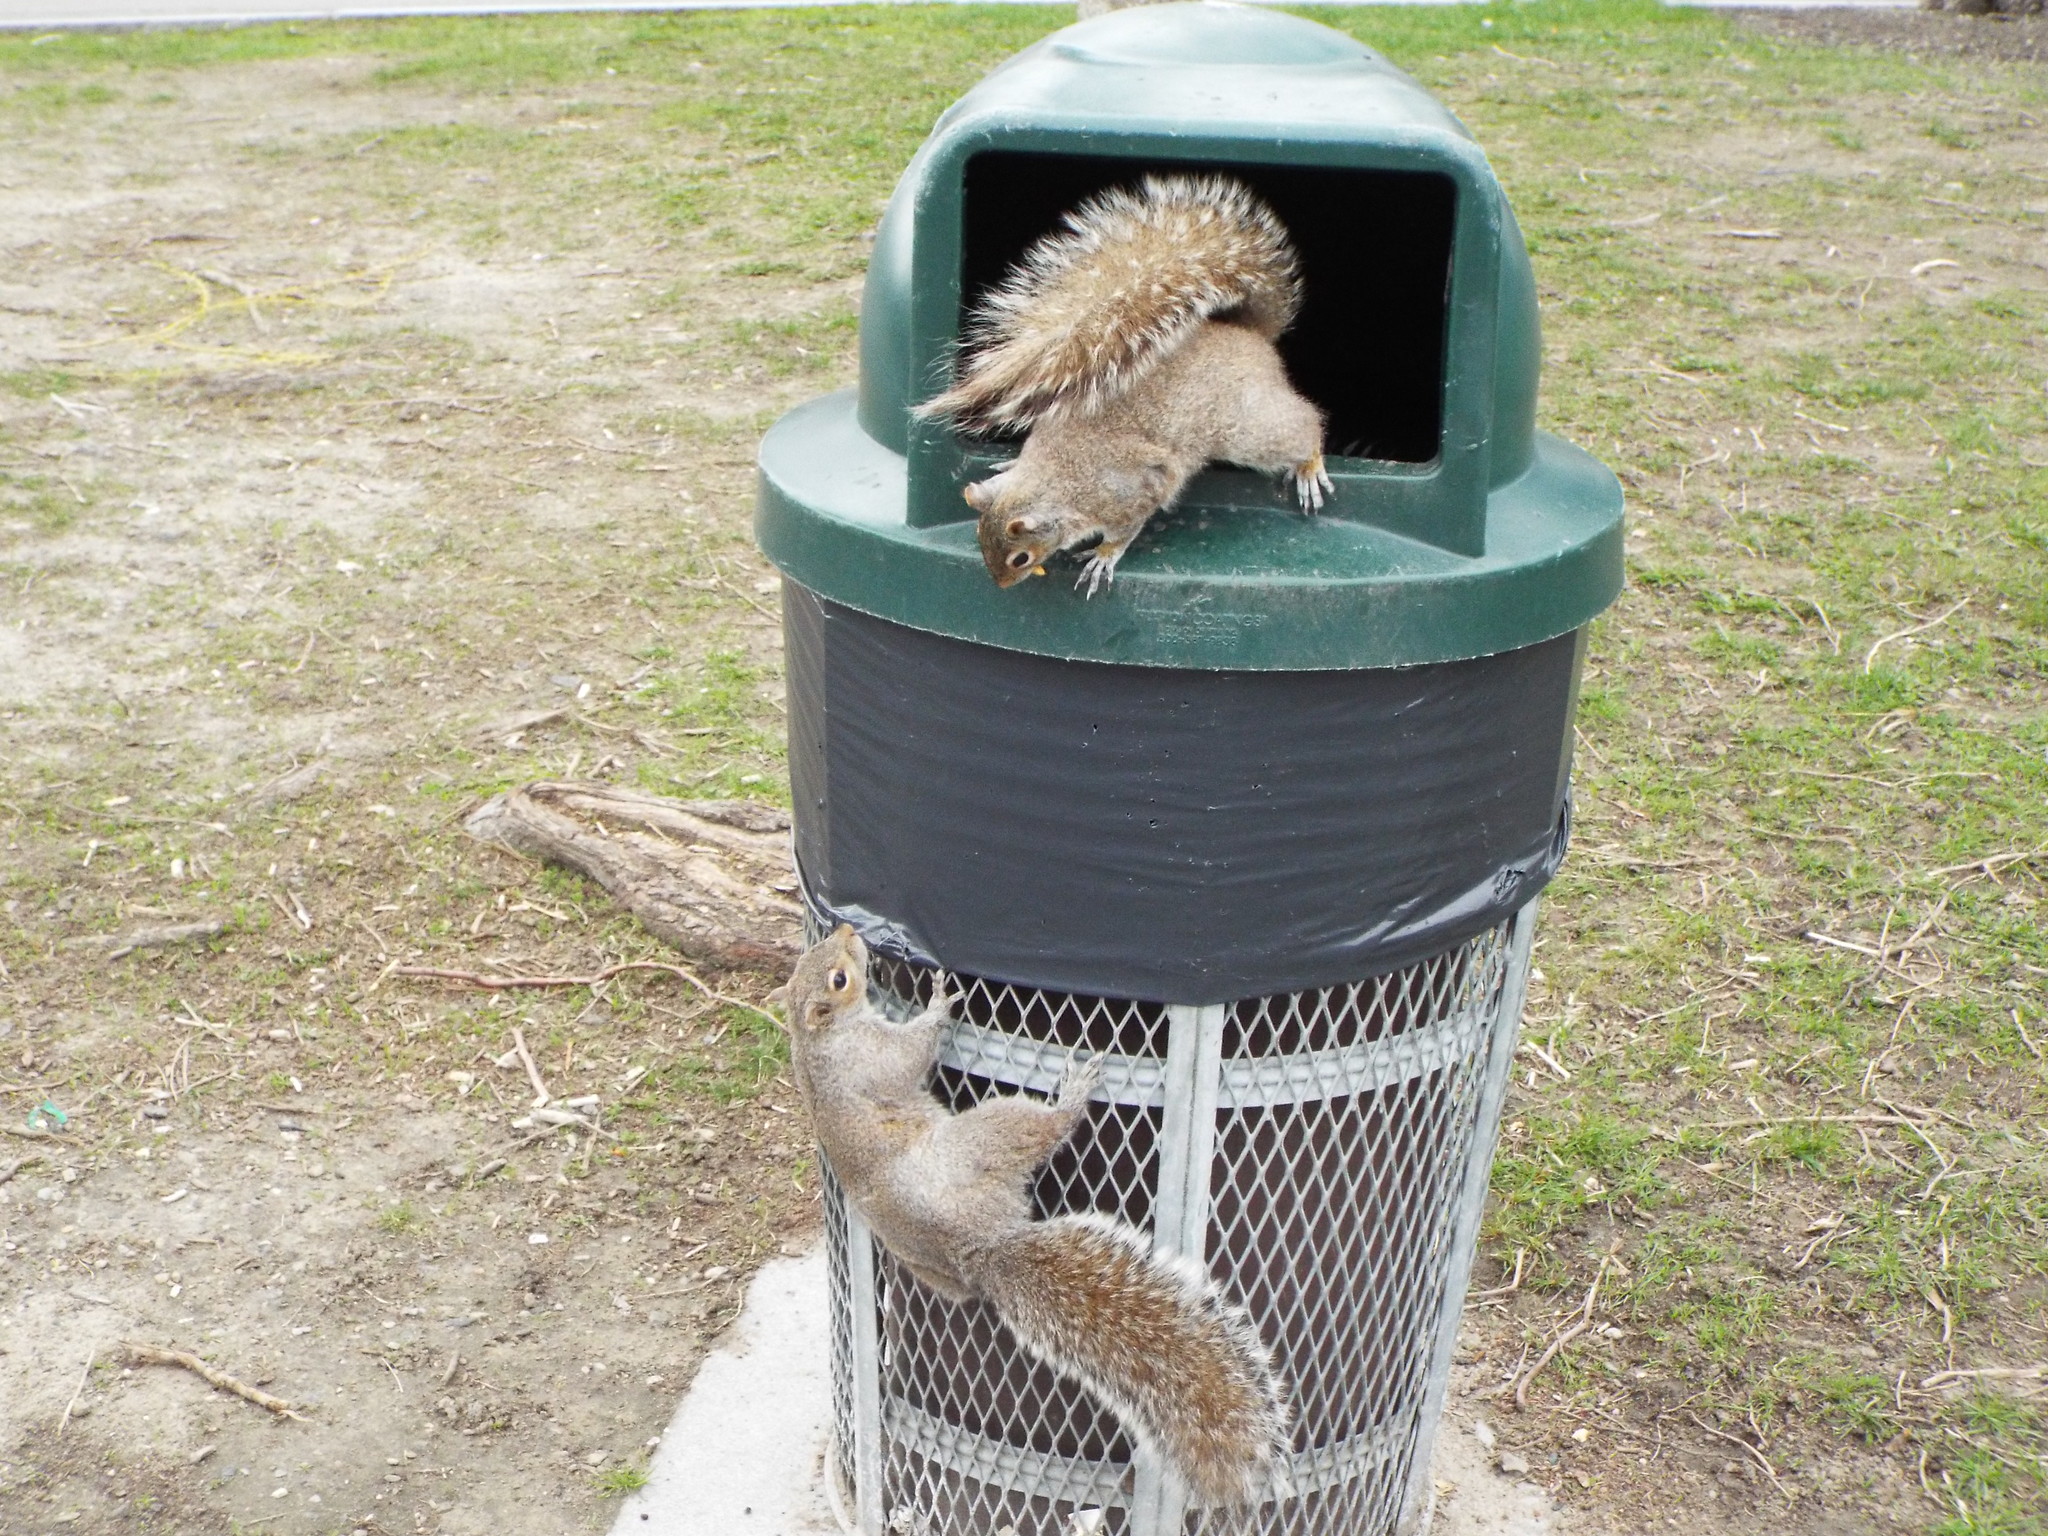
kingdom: Animalia
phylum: Chordata
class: Mammalia
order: Rodentia
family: Sciuridae
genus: Sciurus
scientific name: Sciurus carolinensis
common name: Eastern gray squirrel
